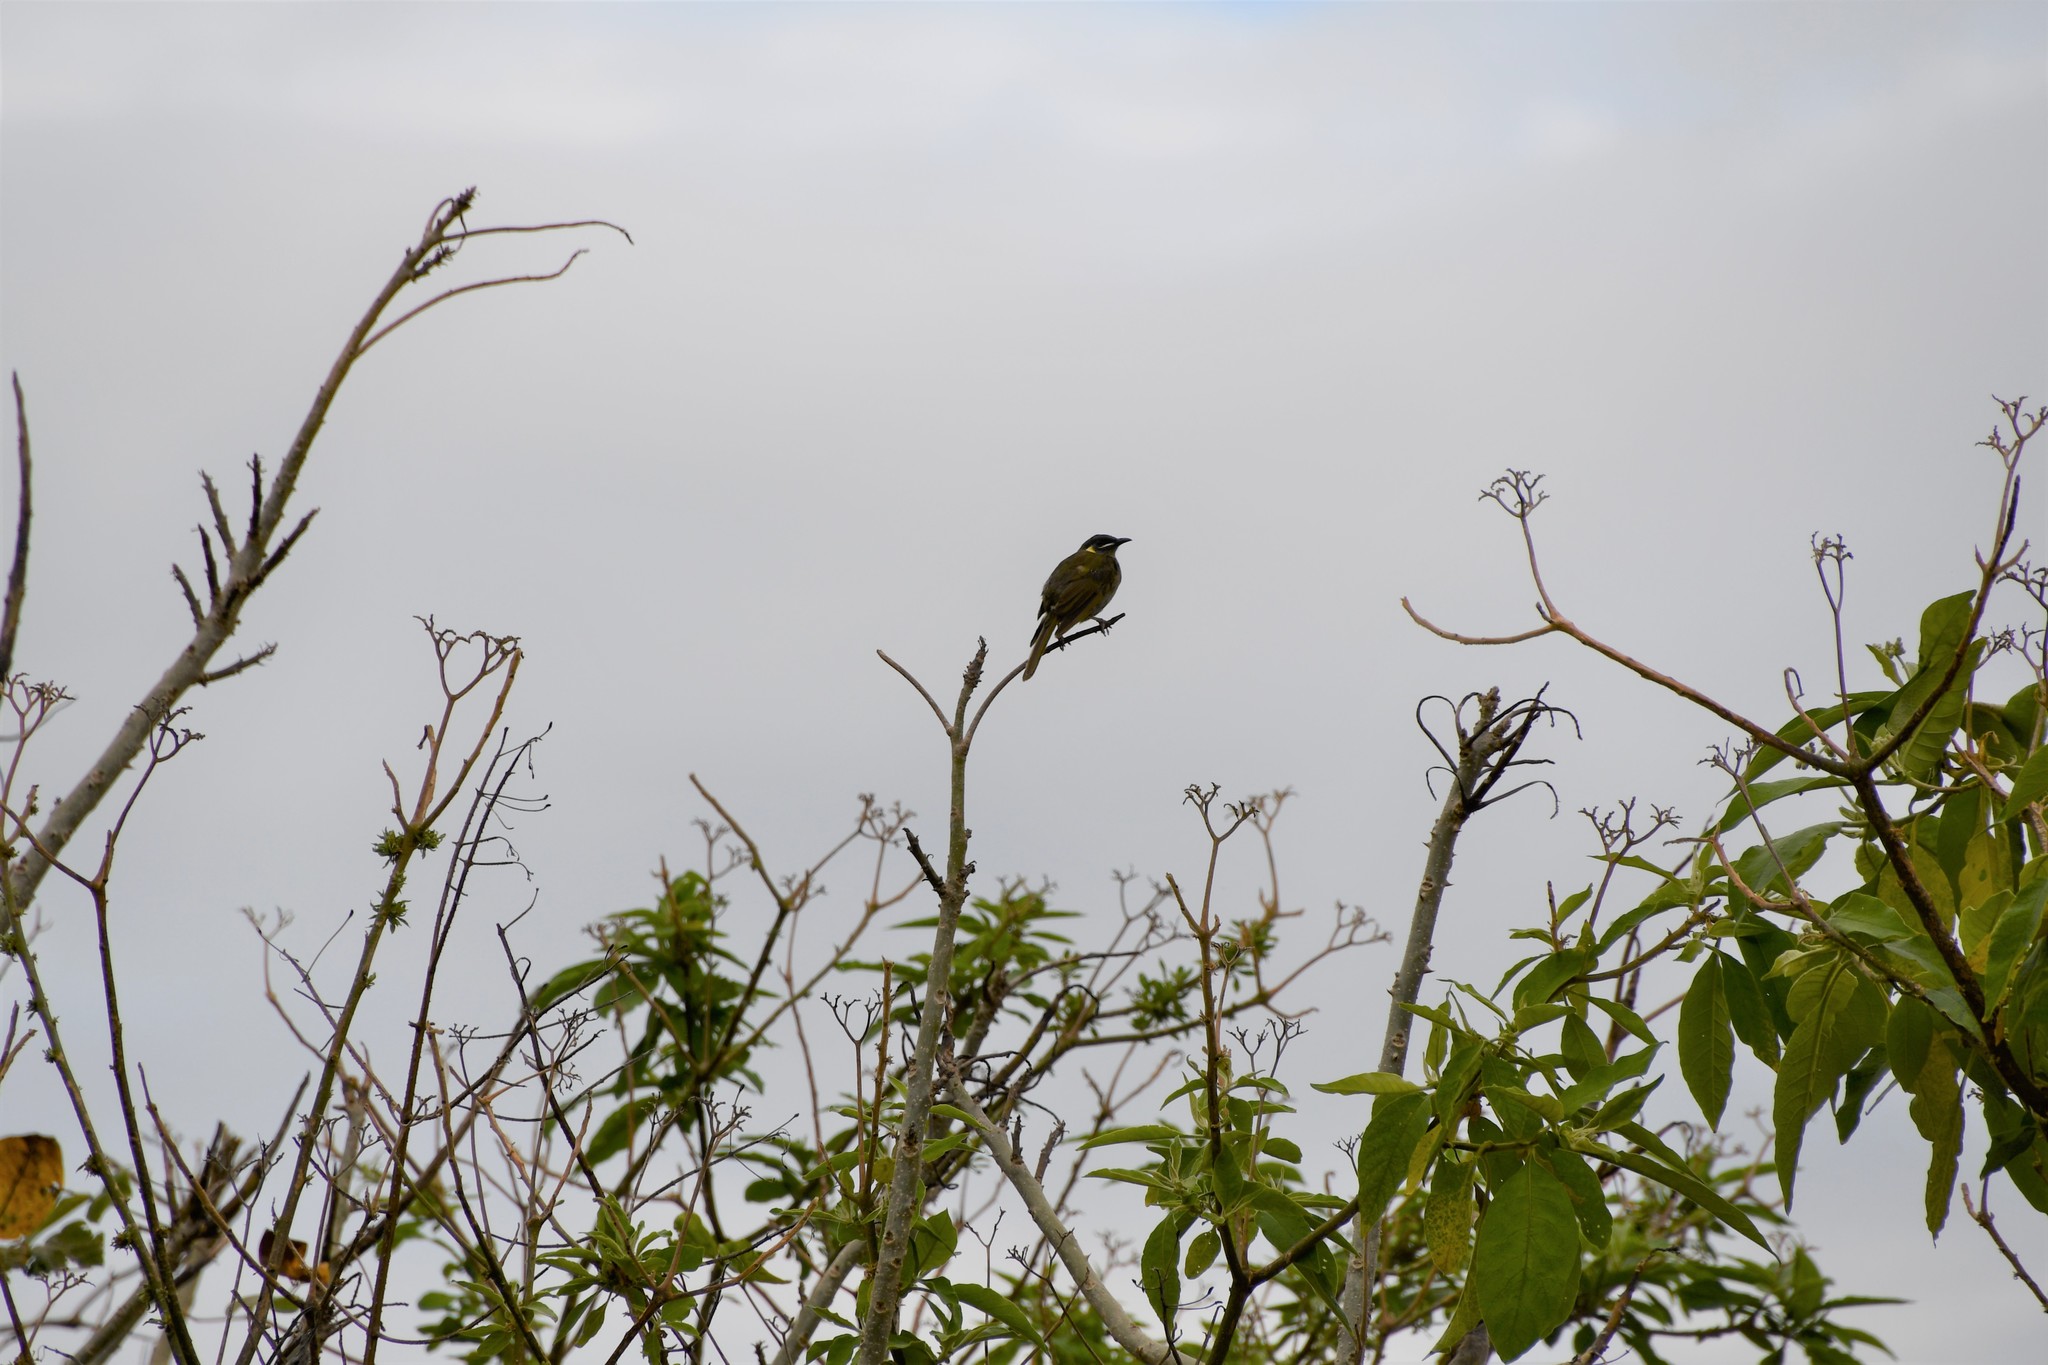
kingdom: Animalia
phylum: Chordata
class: Aves
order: Passeriformes
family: Meliphagidae
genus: Meliphaga
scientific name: Meliphaga lewinii
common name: Lewin's honeyeater
